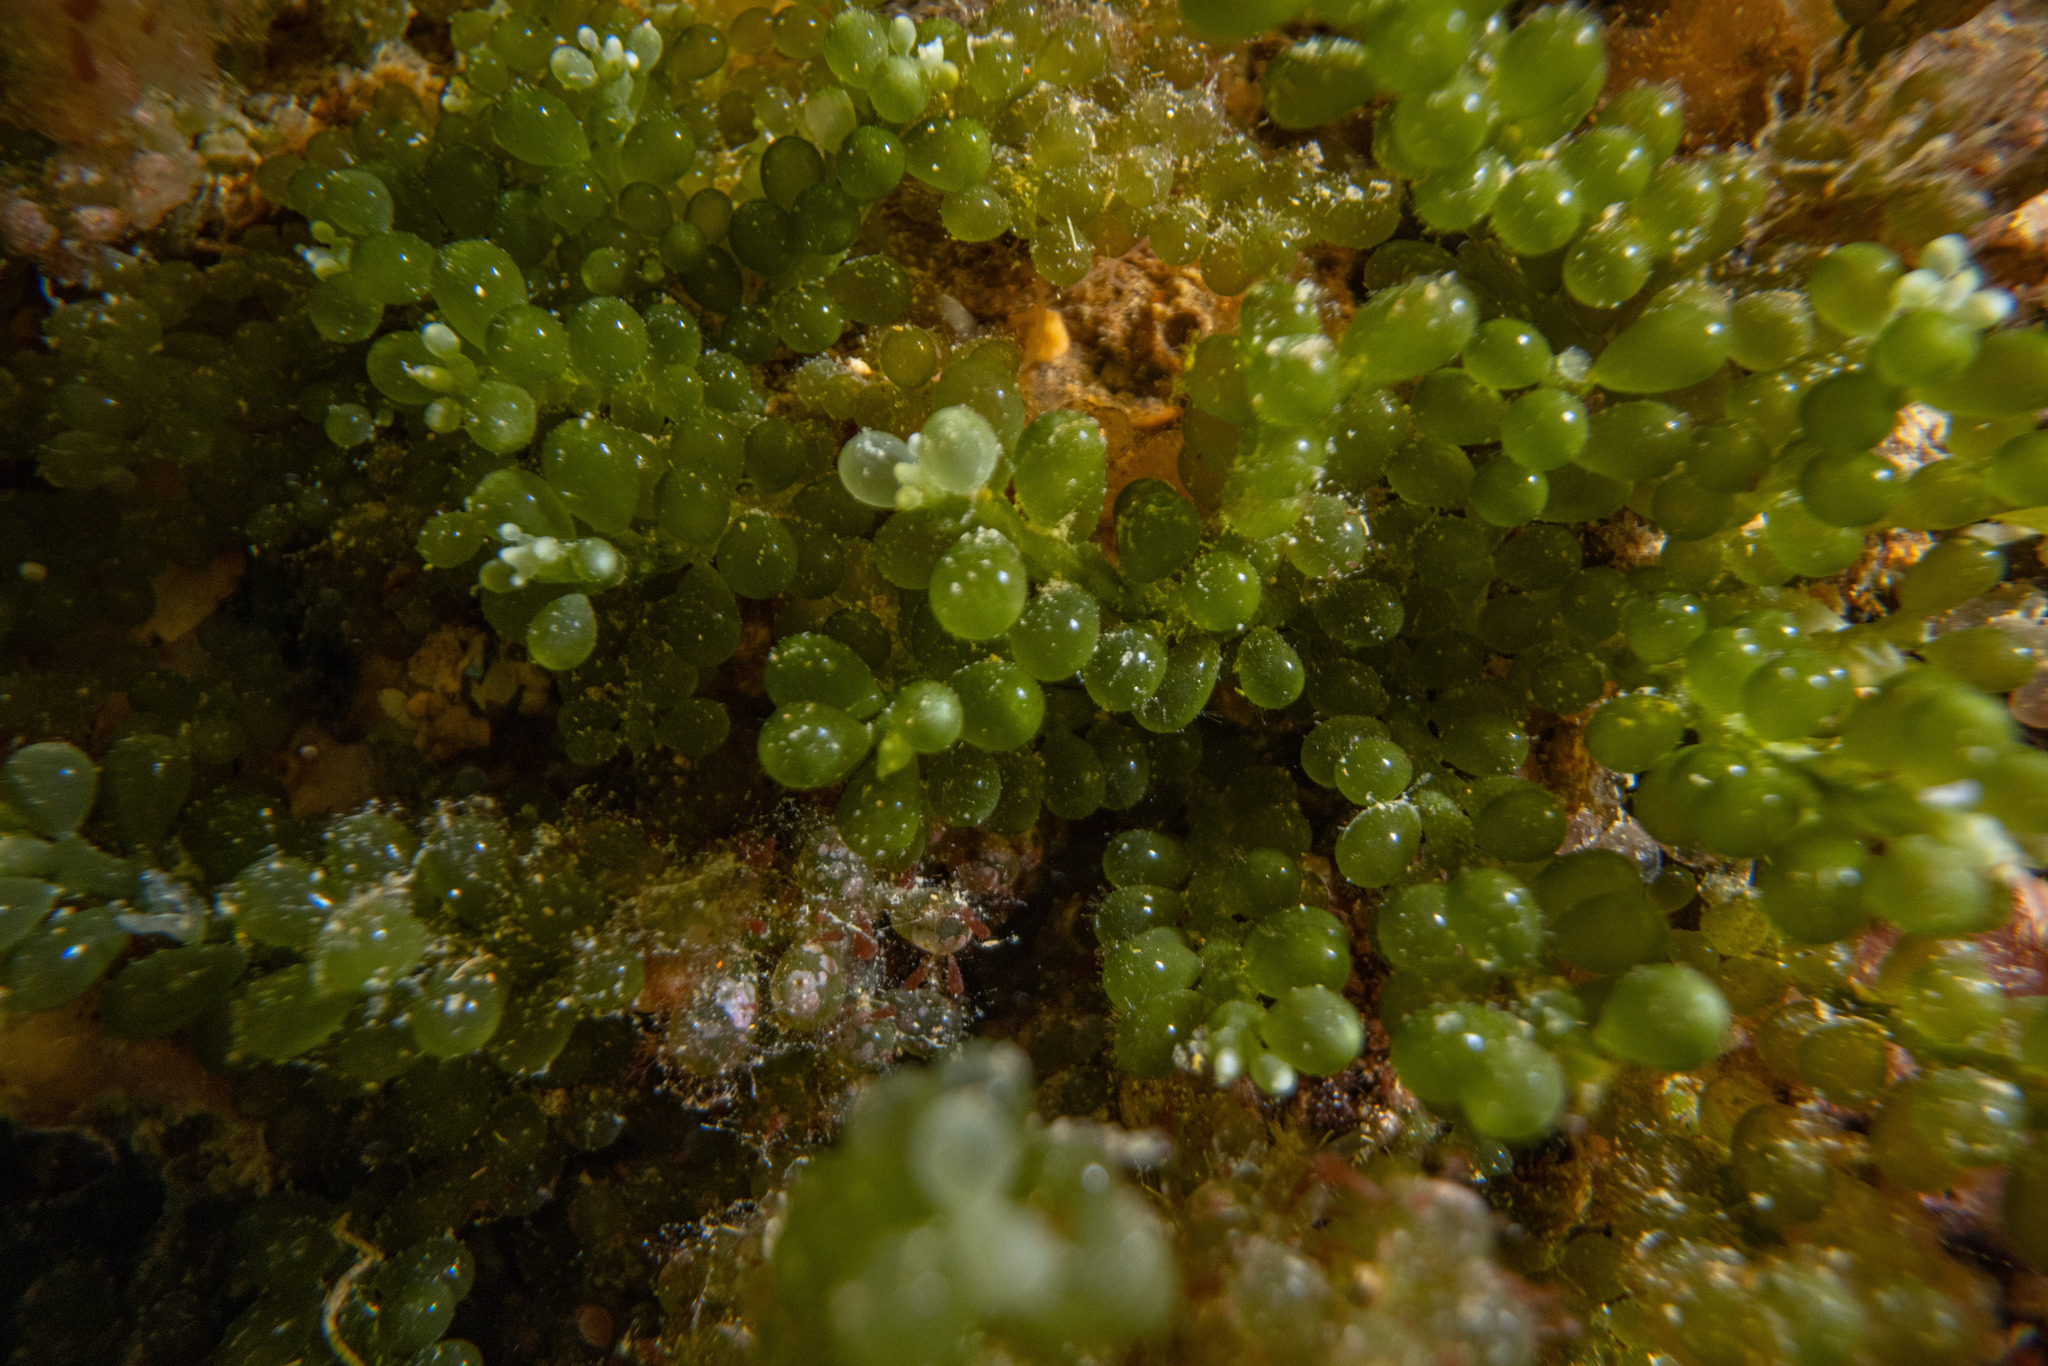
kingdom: Plantae
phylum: Chlorophyta
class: Ulvophyceae
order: Bryopsidales
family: Caulerpaceae
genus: Caulerpa
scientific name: Caulerpa geminata
